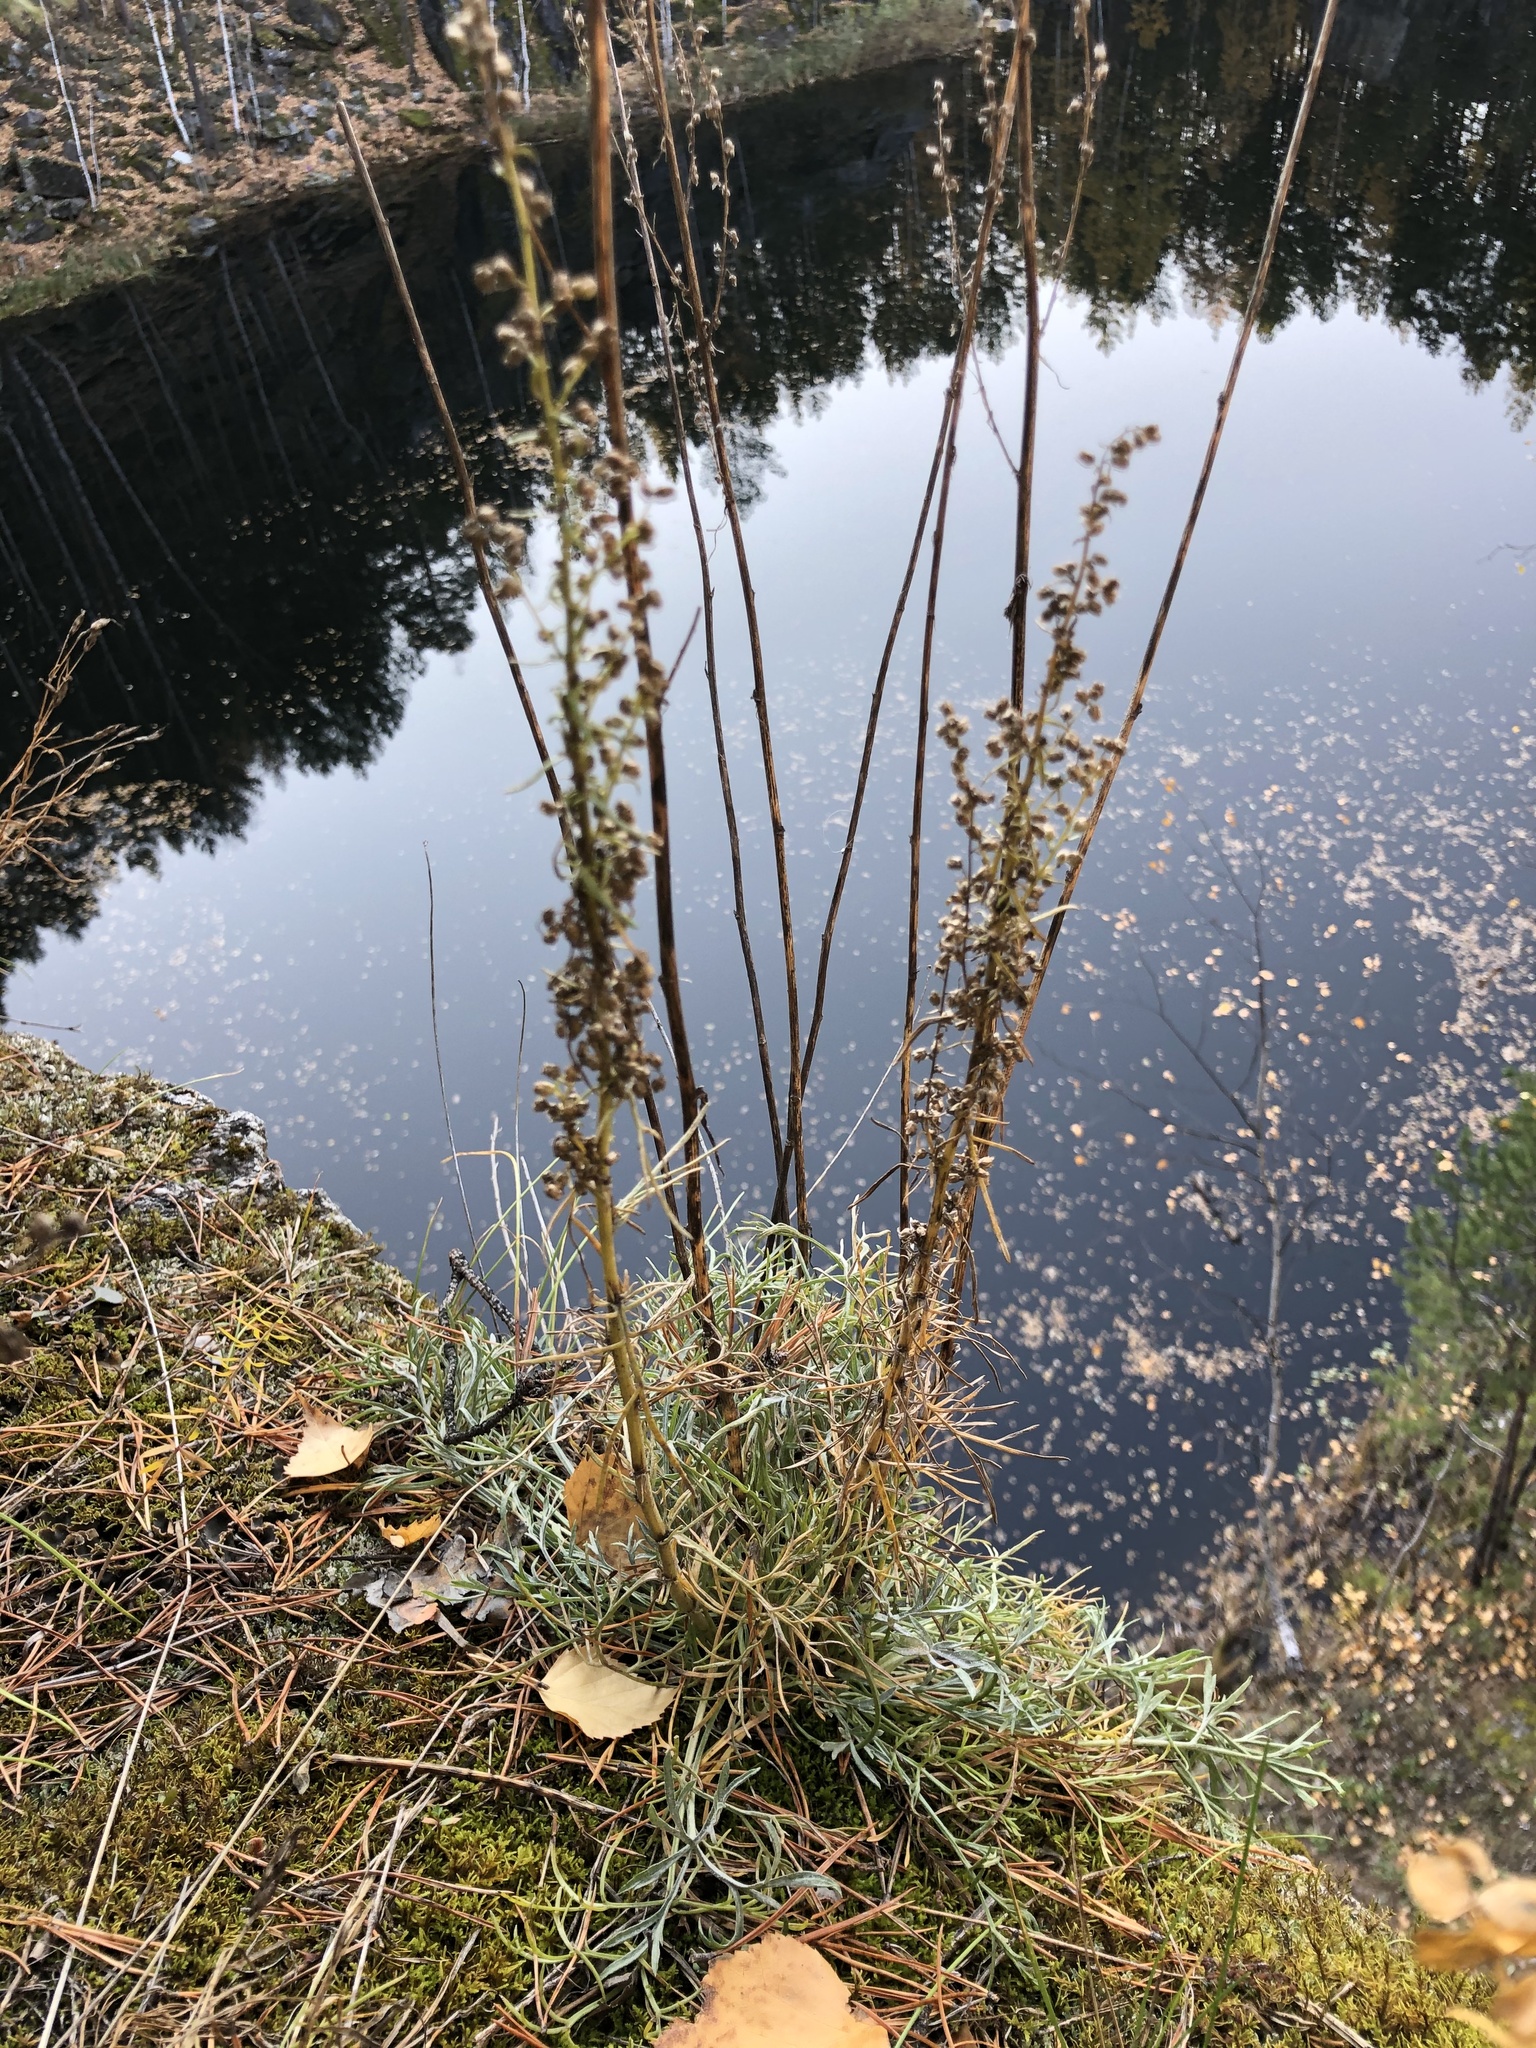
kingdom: Plantae
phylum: Tracheophyta
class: Magnoliopsida
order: Asterales
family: Asteraceae
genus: Artemisia
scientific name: Artemisia pubescens
